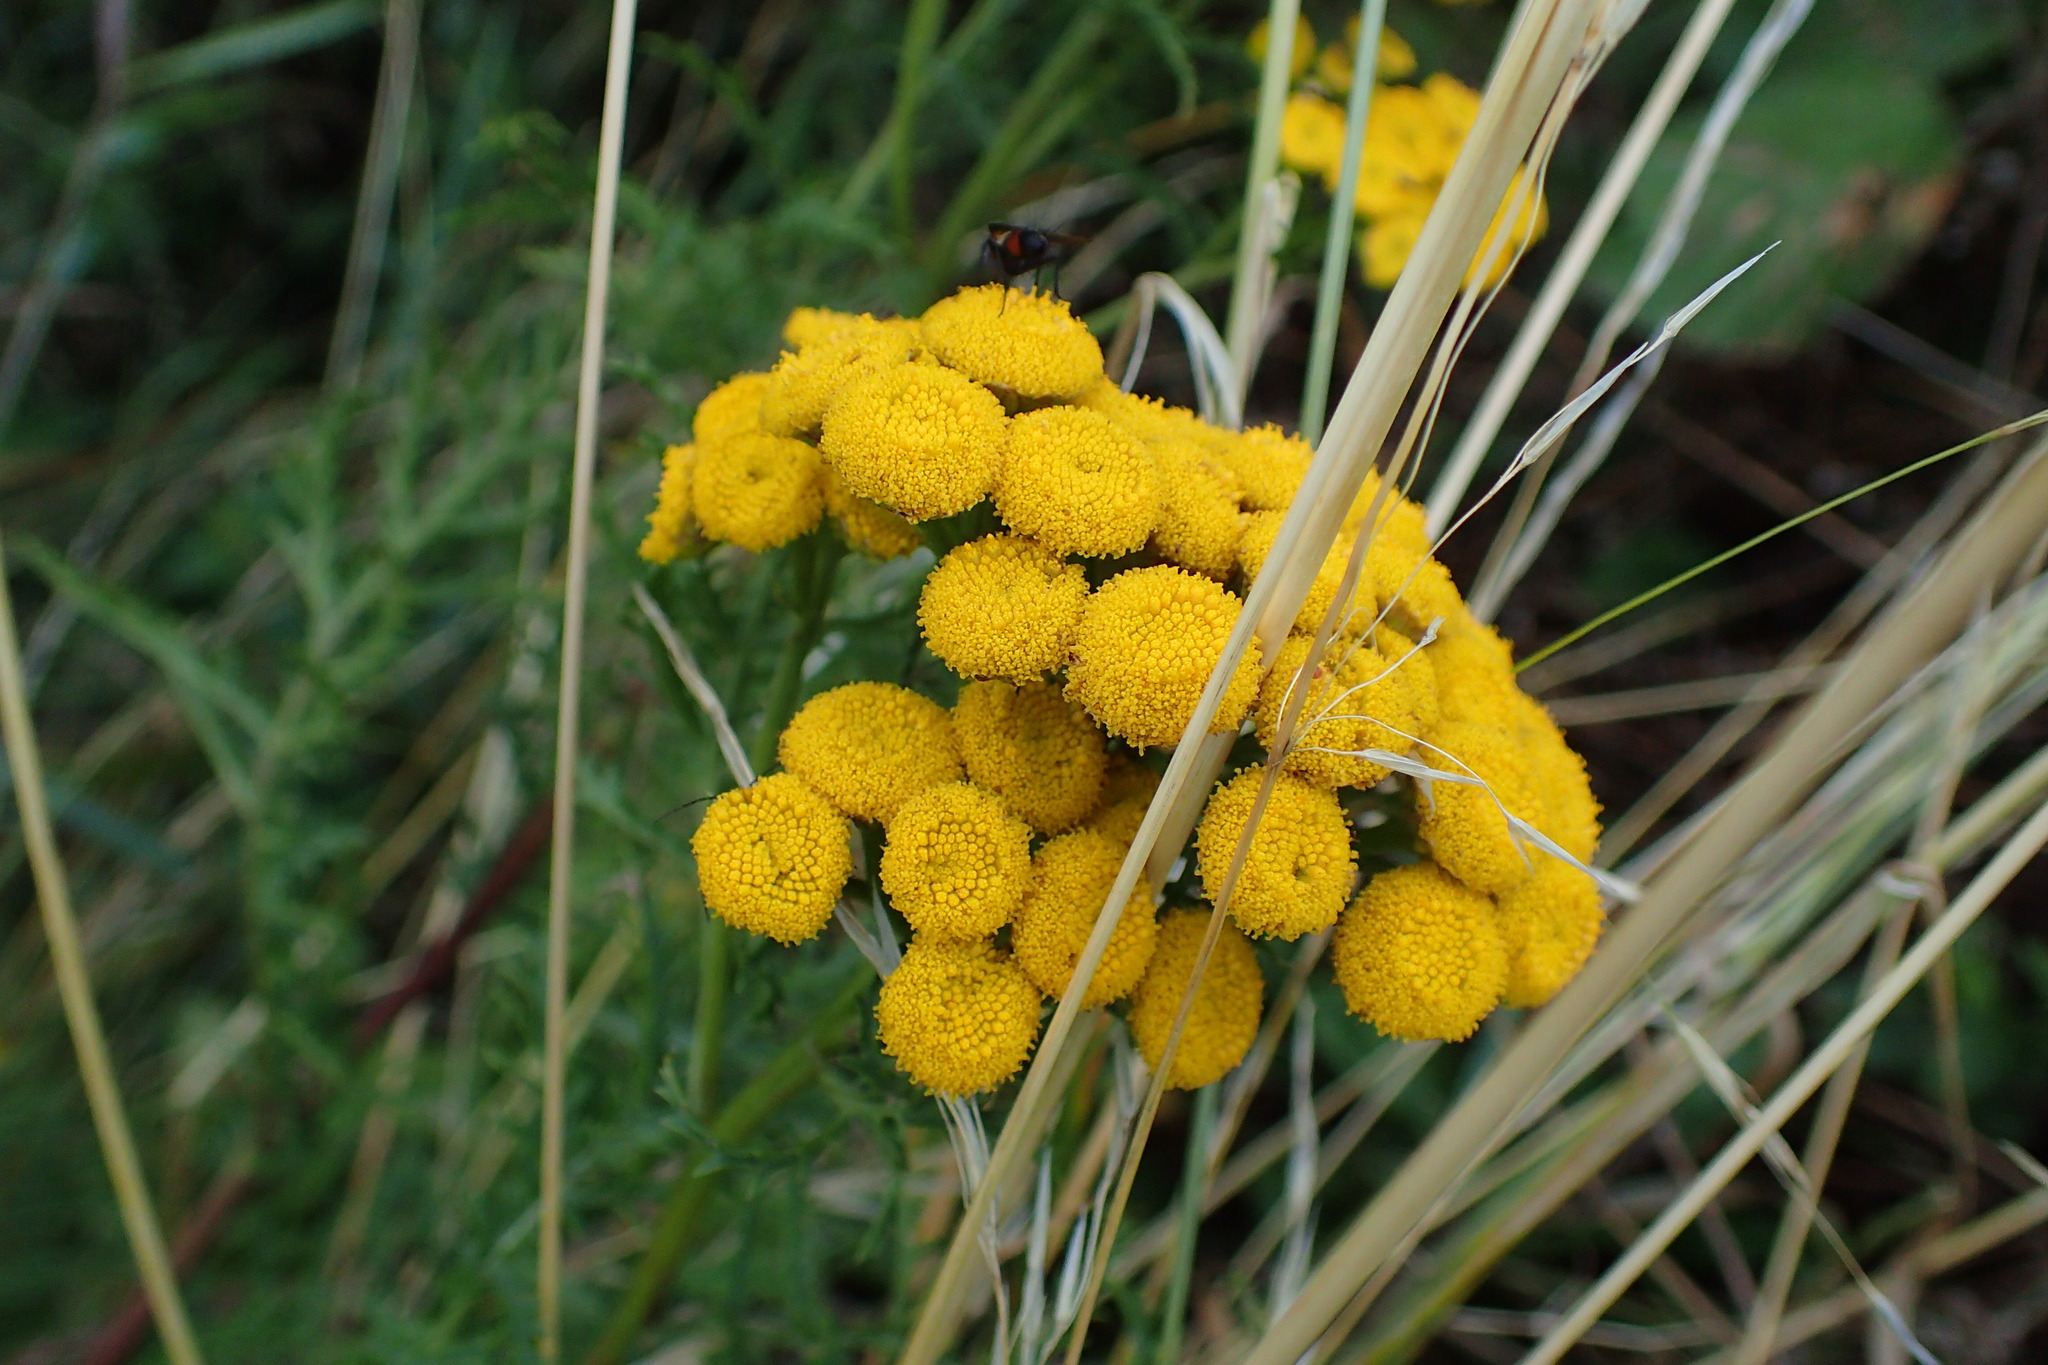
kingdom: Plantae
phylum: Tracheophyta
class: Magnoliopsida
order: Asterales
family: Asteraceae
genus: Tanacetum
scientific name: Tanacetum vulgare
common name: Common tansy
